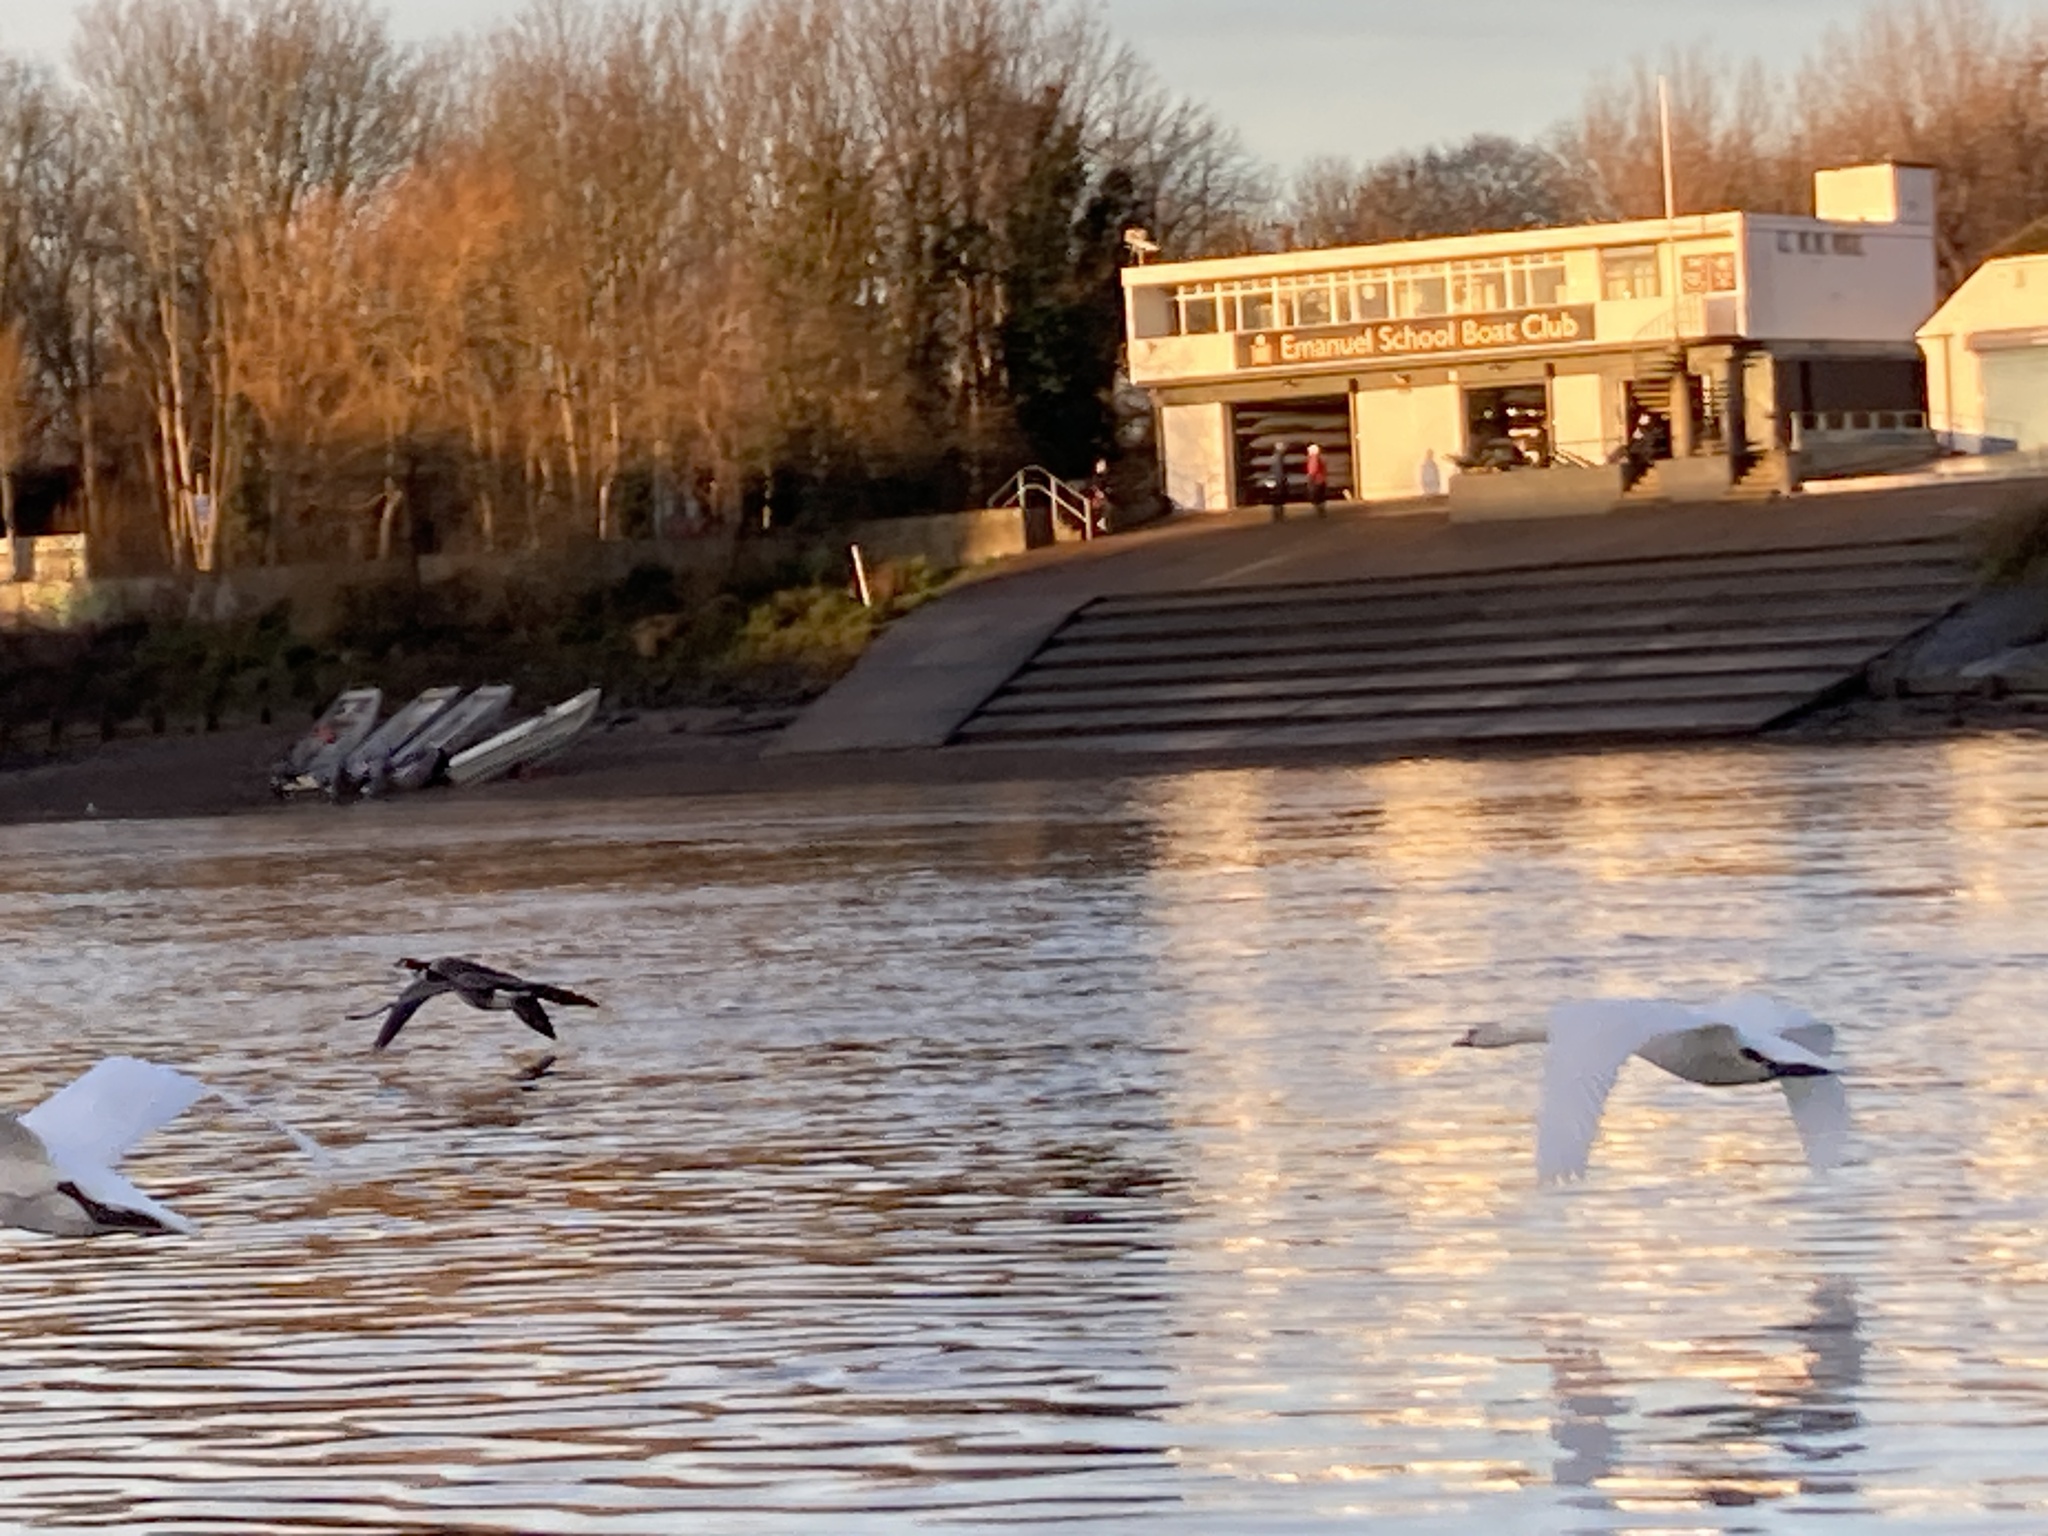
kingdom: Animalia
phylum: Chordata
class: Aves
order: Anseriformes
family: Anatidae
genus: Branta
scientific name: Branta canadensis
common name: Canada goose
